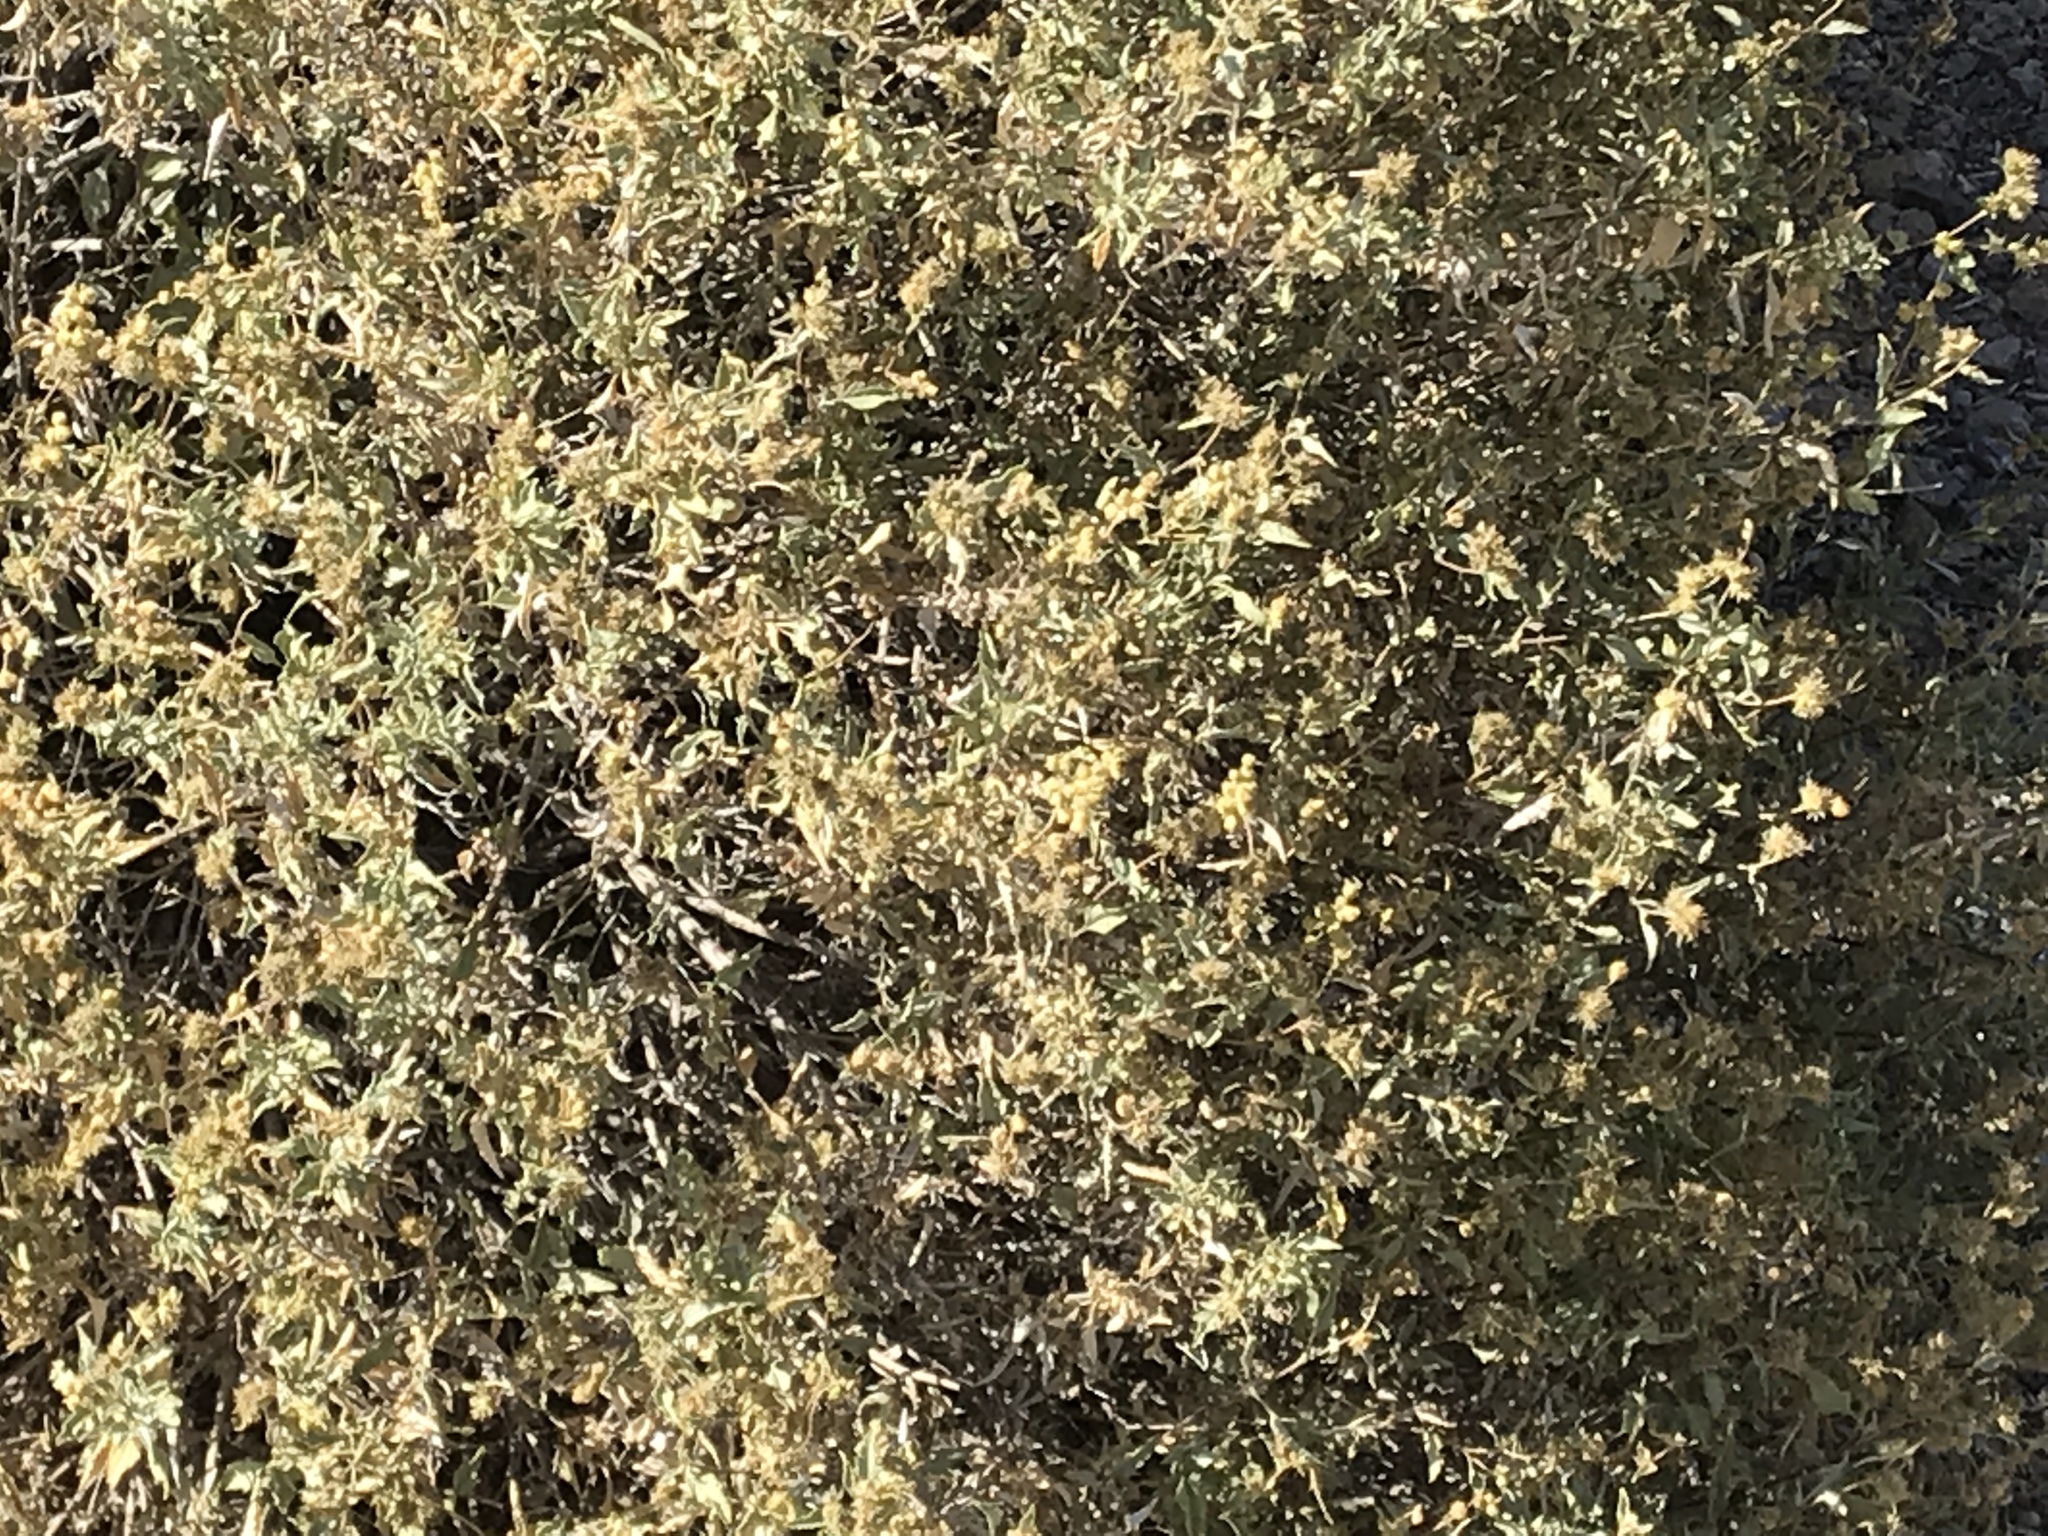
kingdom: Plantae
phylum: Tracheophyta
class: Magnoliopsida
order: Asterales
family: Asteraceae
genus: Ambrosia
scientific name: Ambrosia deltoidea
